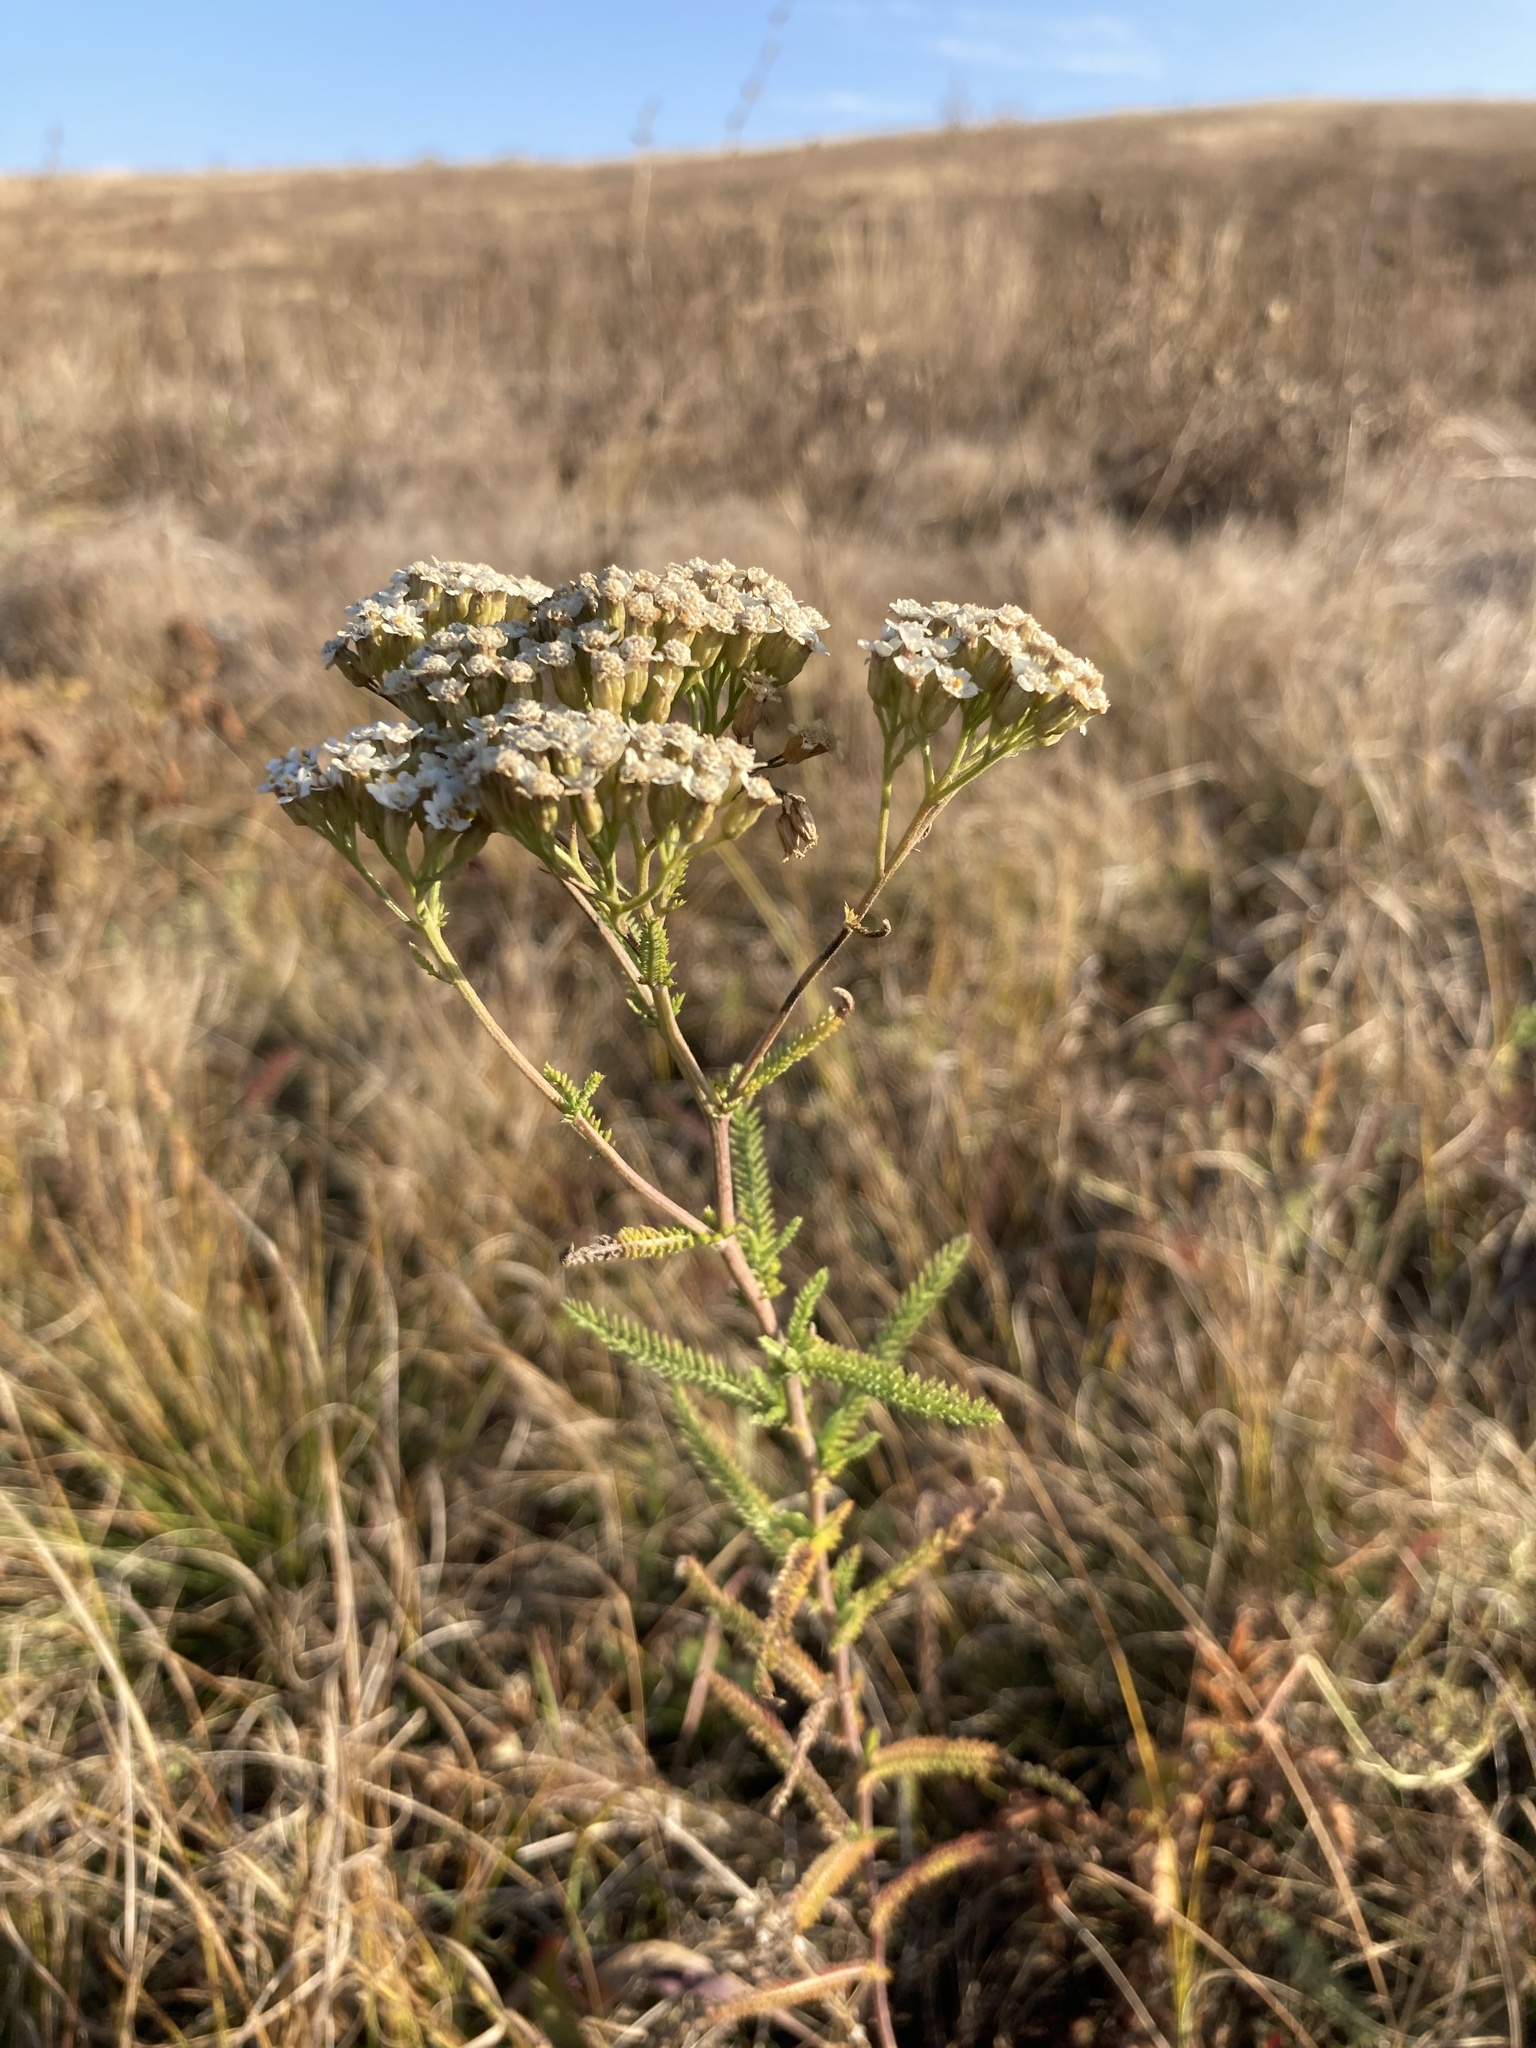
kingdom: Plantae
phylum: Tracheophyta
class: Magnoliopsida
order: Asterales
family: Asteraceae
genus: Achillea
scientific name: Achillea setacea
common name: Bristly yarrow
